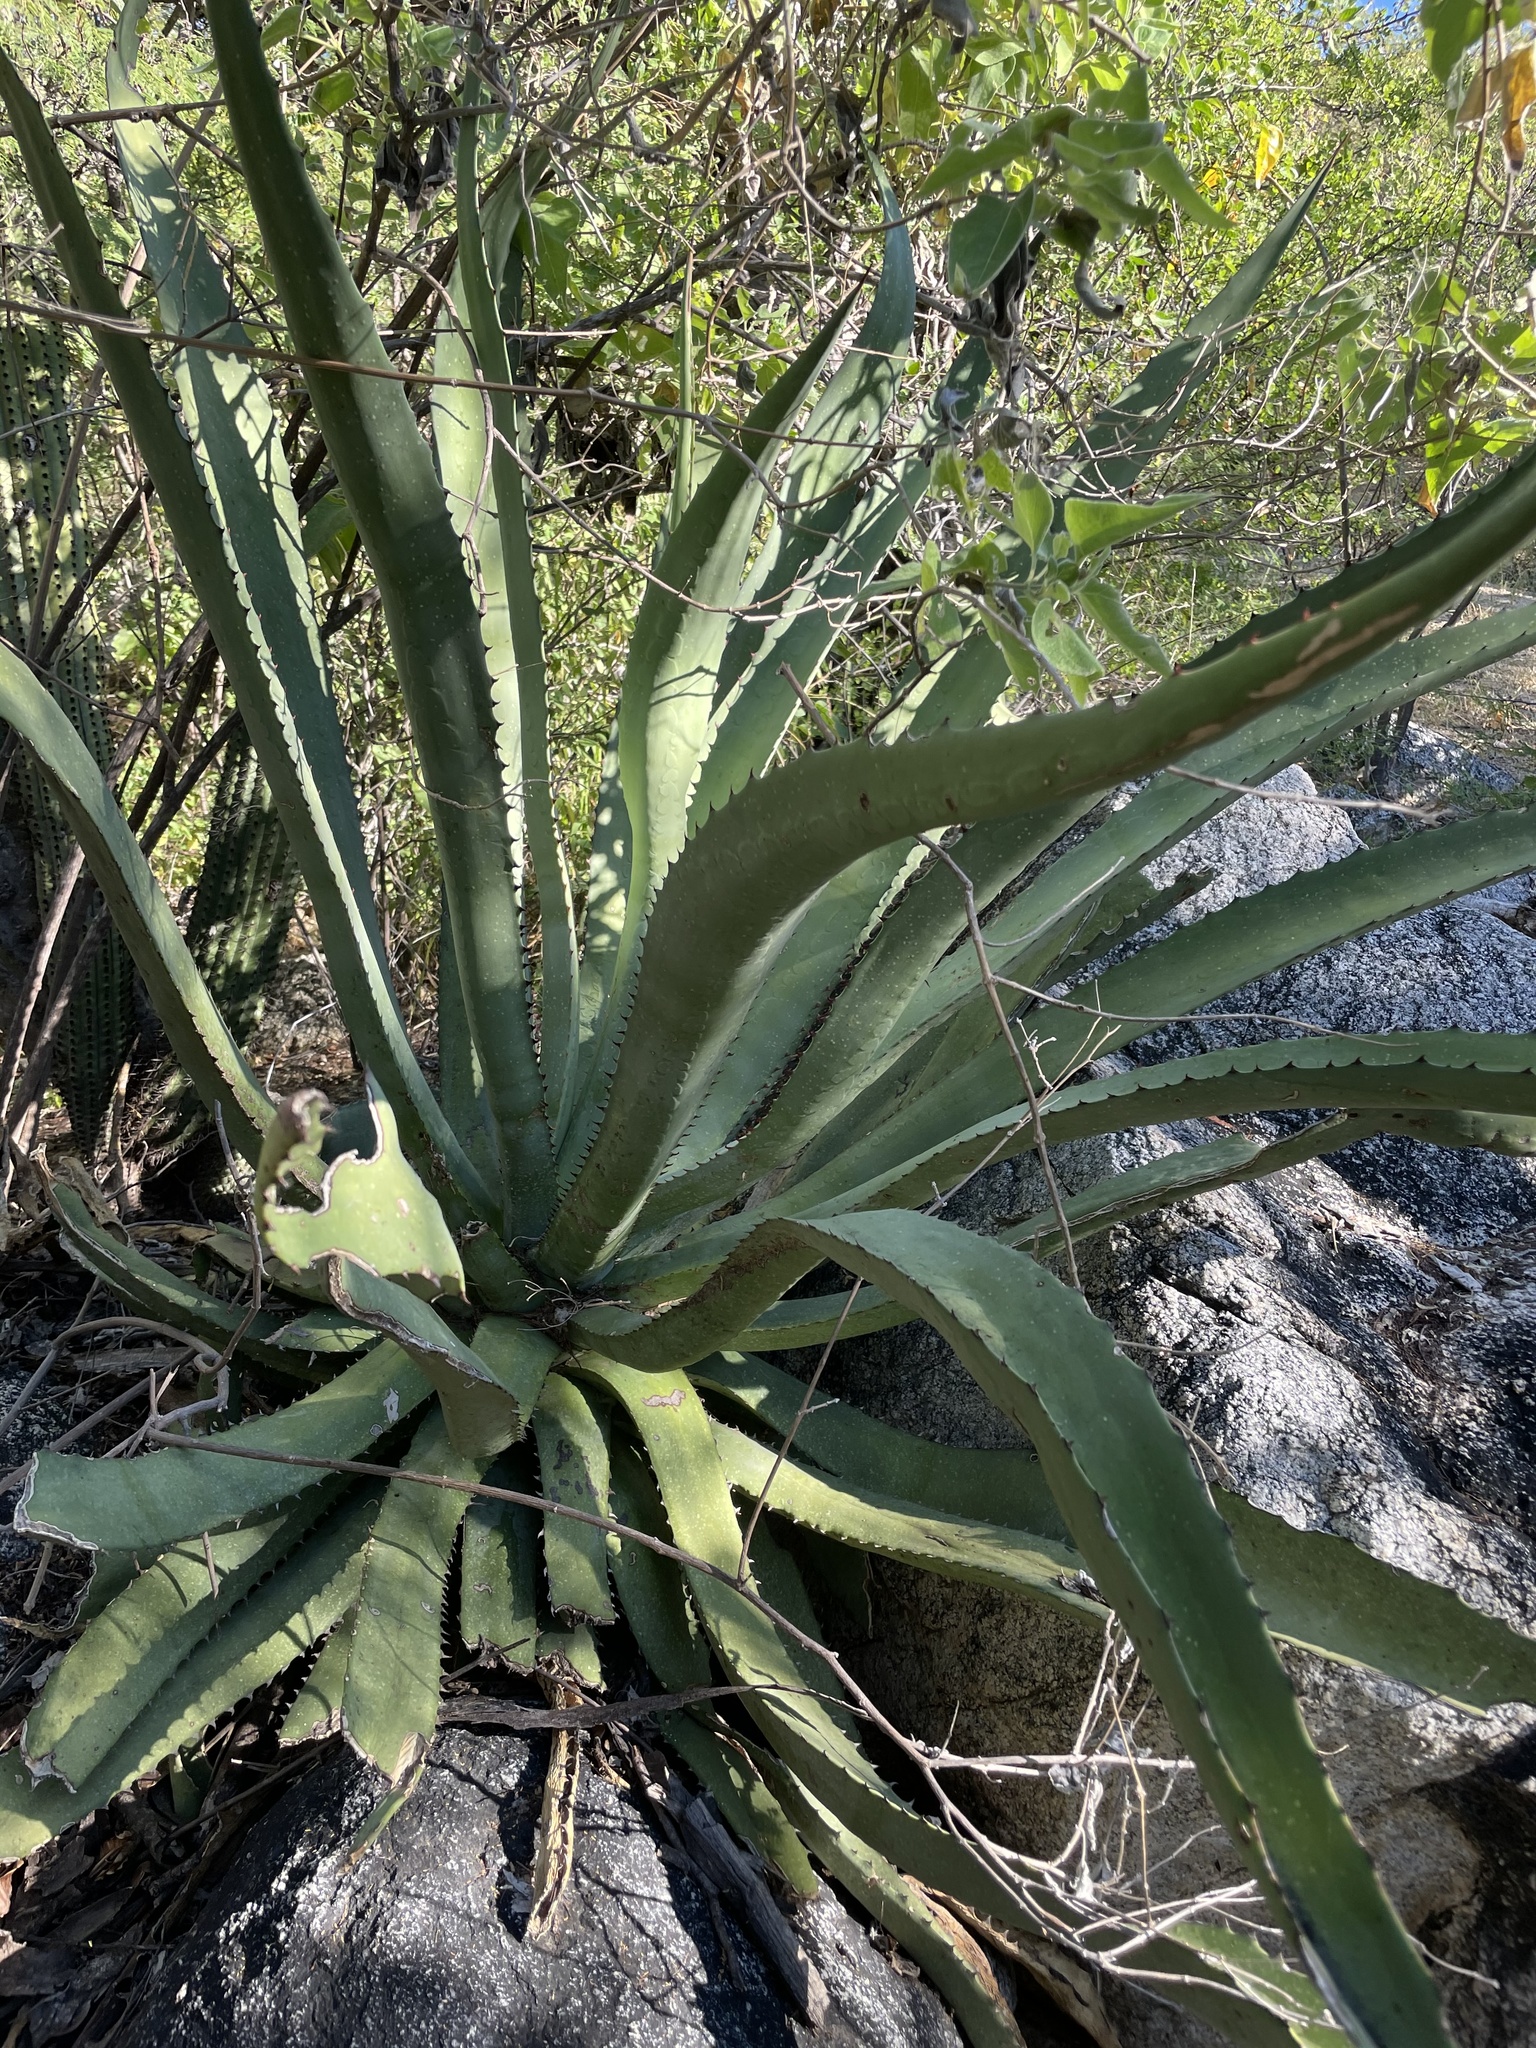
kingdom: Plantae
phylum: Tracheophyta
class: Liliopsida
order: Asparagales
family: Asparagaceae
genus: Agave
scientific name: Agave aurea
